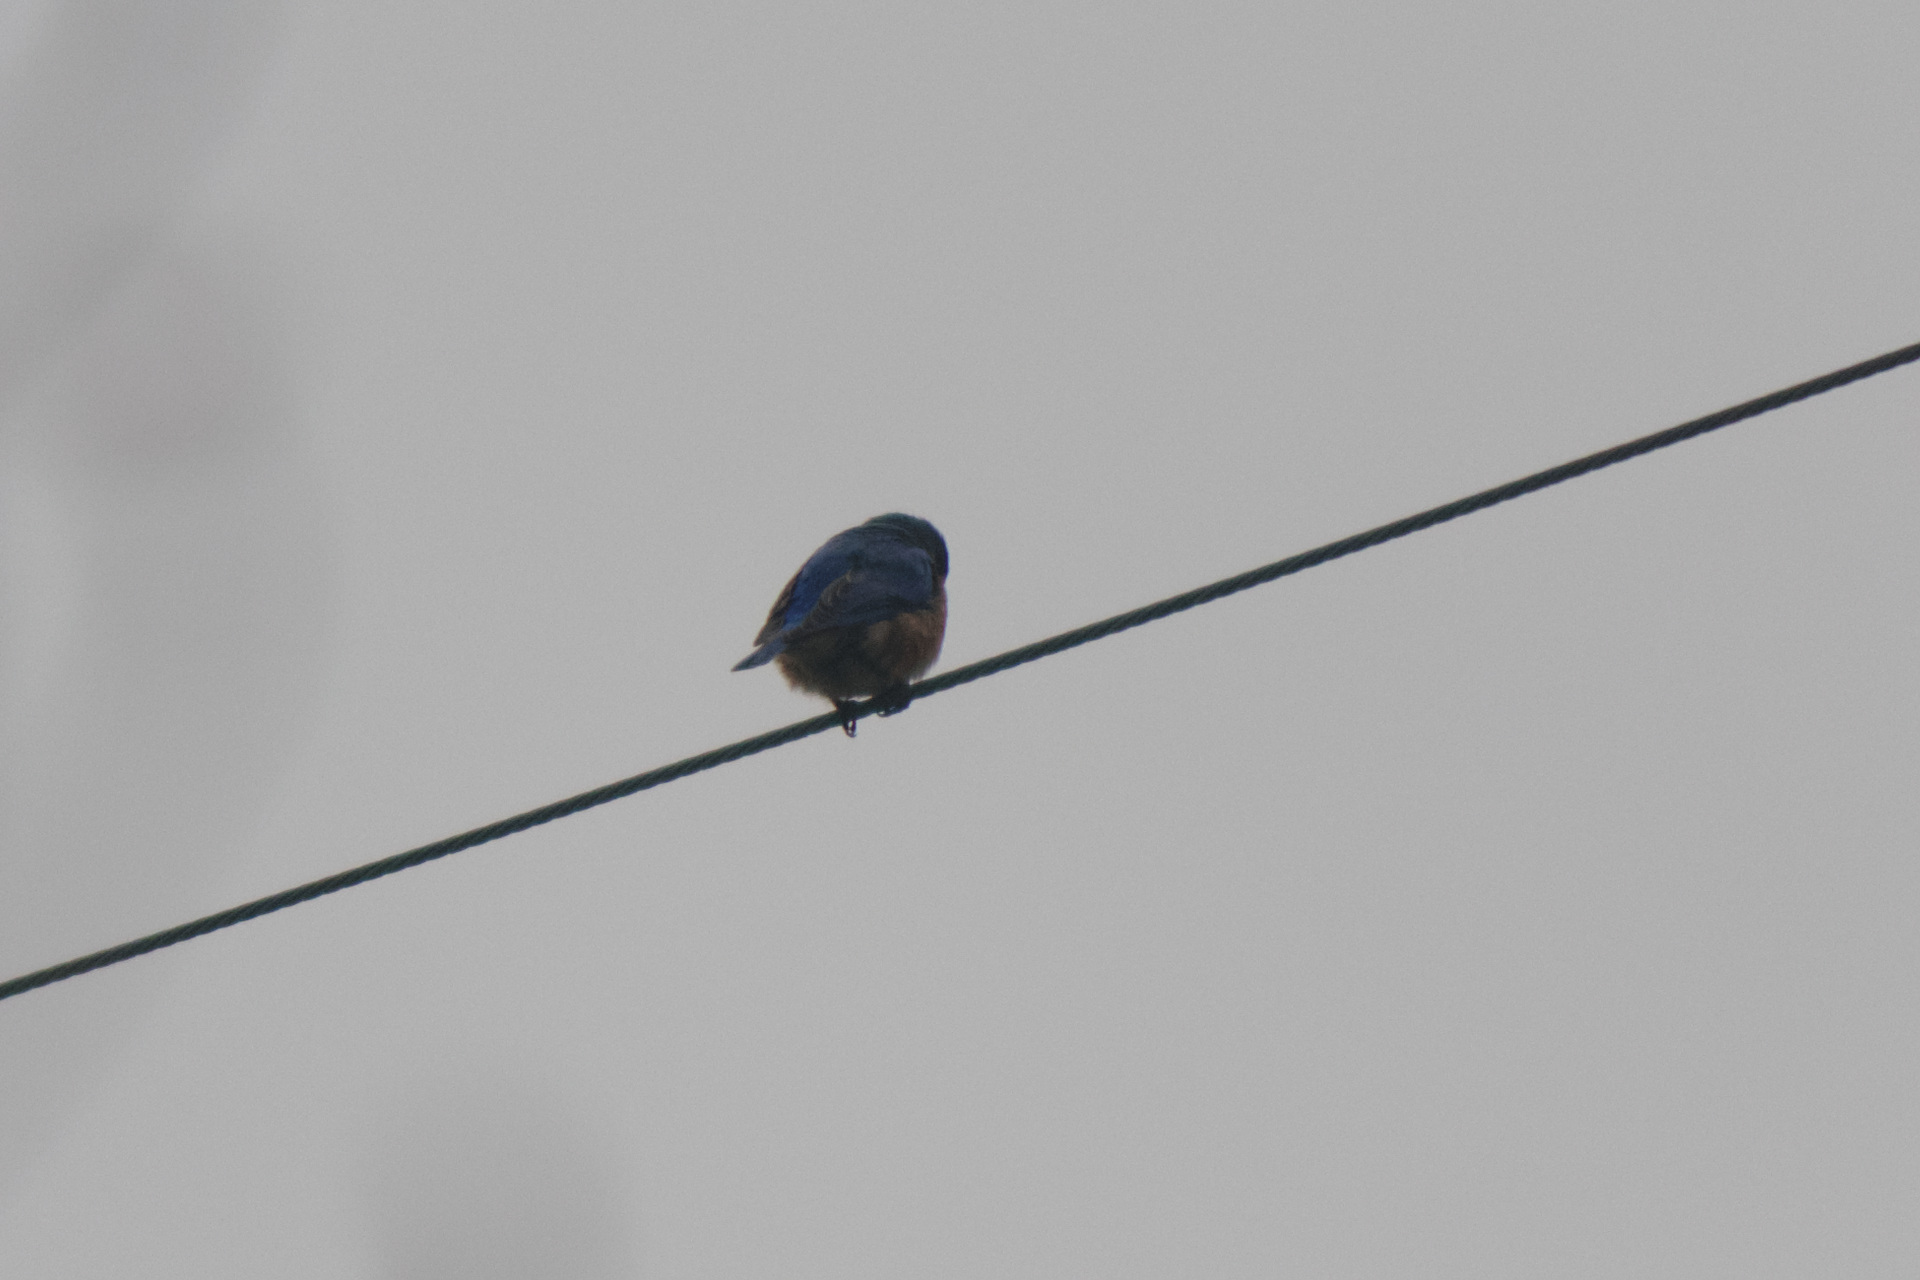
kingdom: Animalia
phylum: Chordata
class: Aves
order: Passeriformes
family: Turdidae
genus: Sialia
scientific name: Sialia sialis
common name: Eastern bluebird
